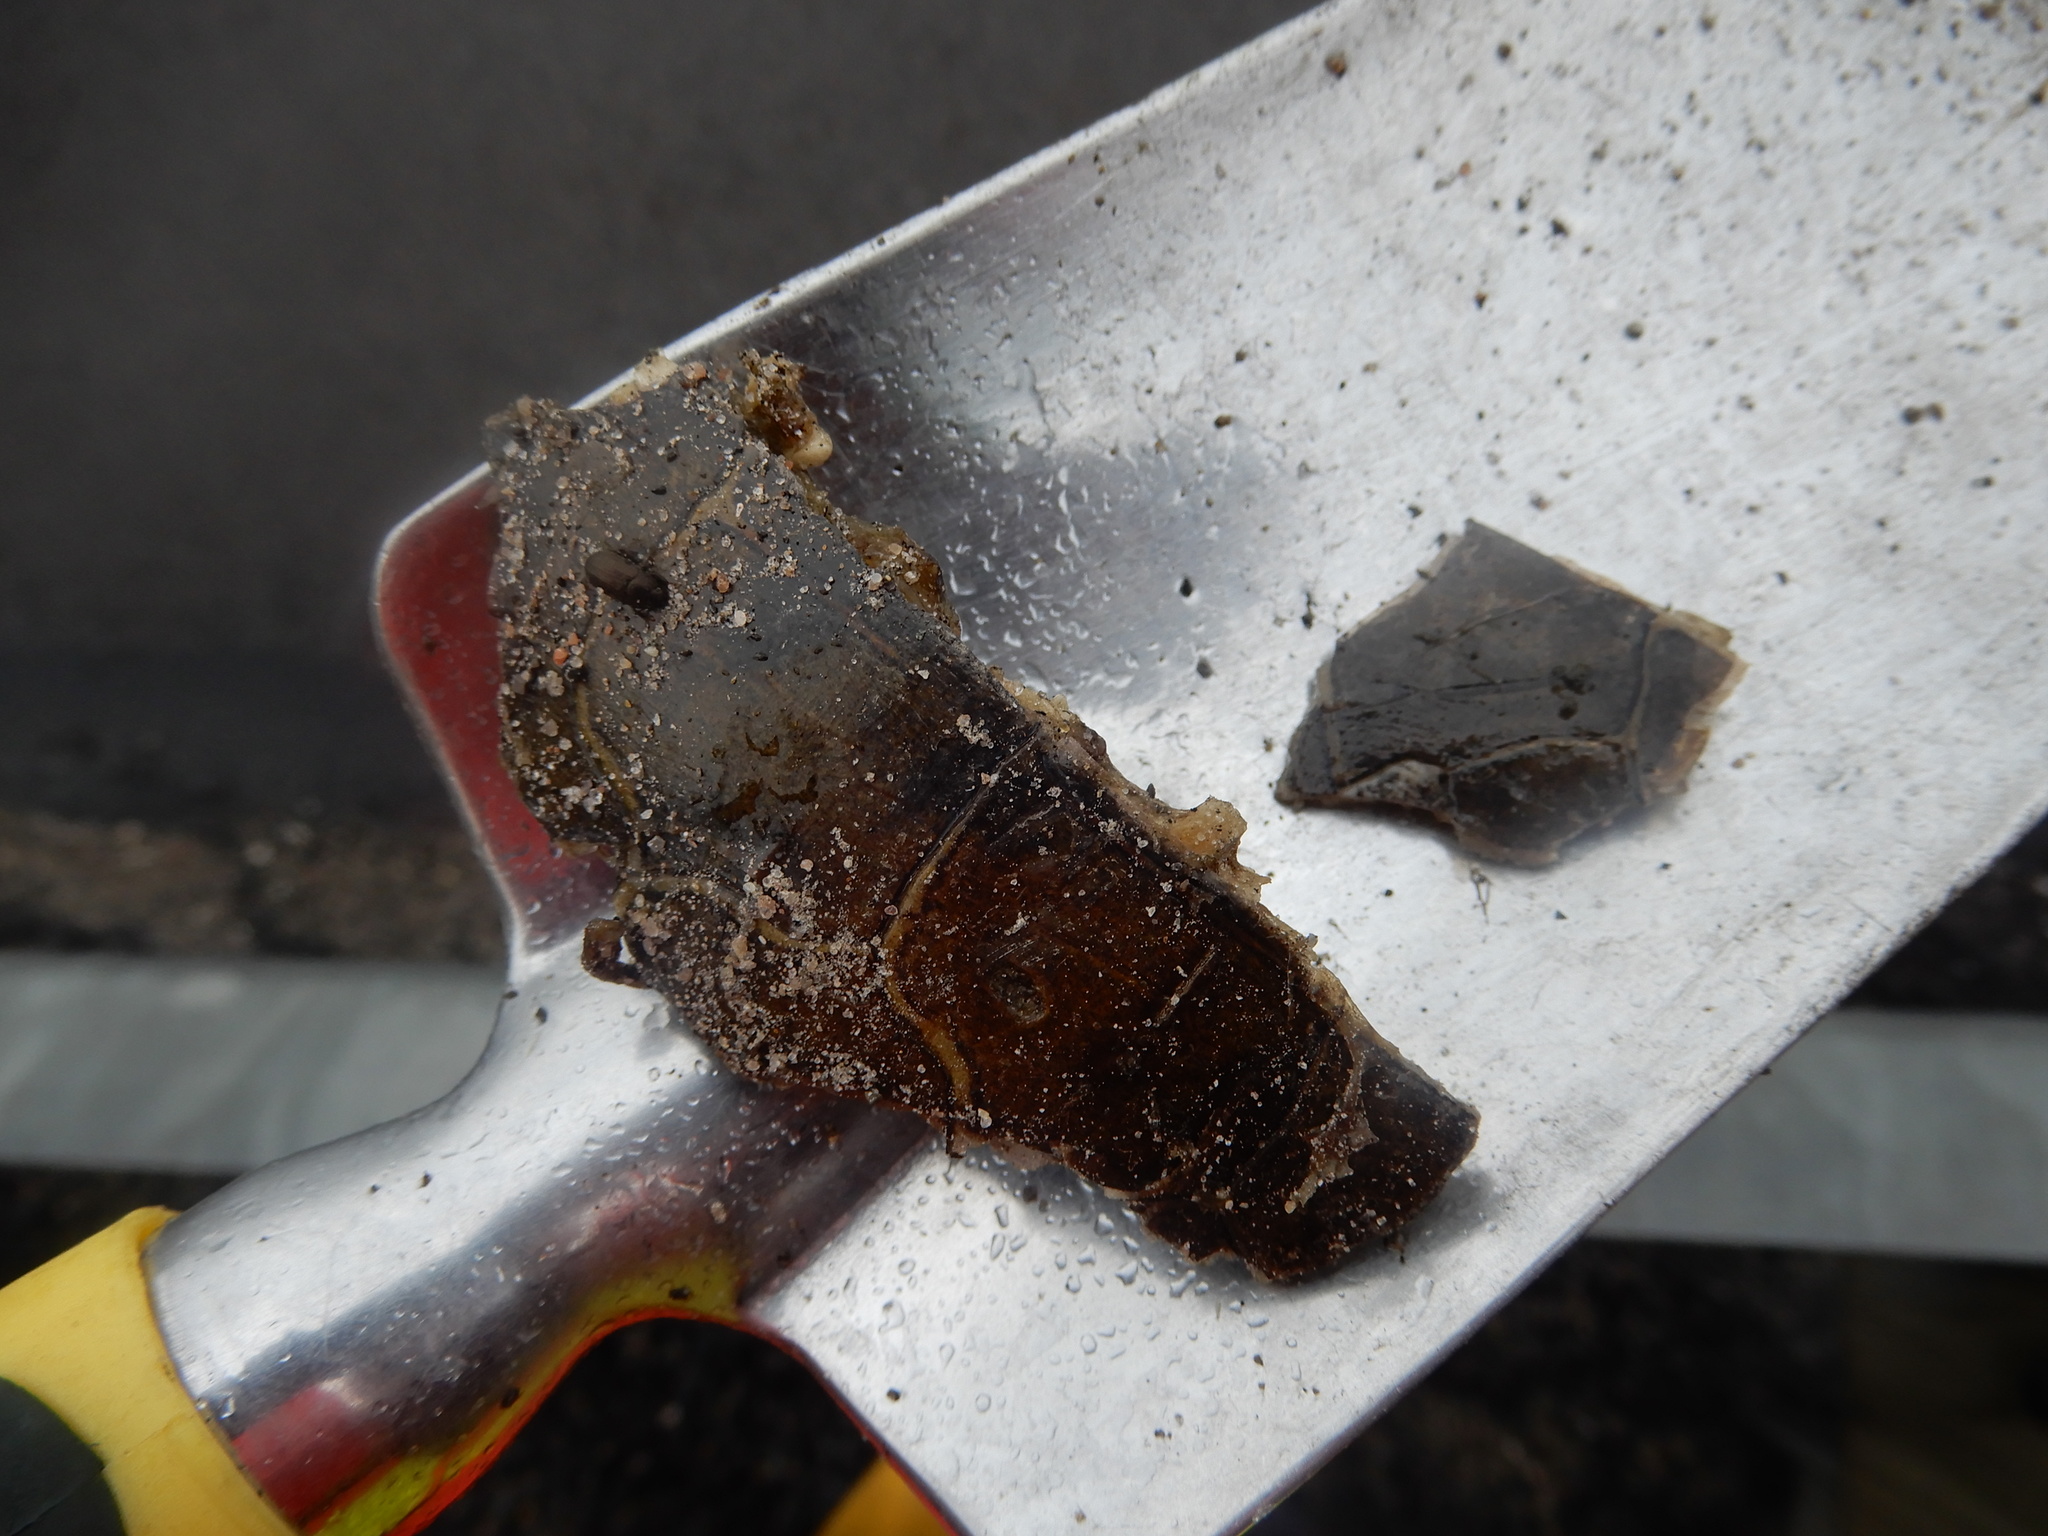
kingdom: Animalia
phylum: Chordata
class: Testudines
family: Emydidae
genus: Chrysemys
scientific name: Chrysemys picta
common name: Painted turtle
